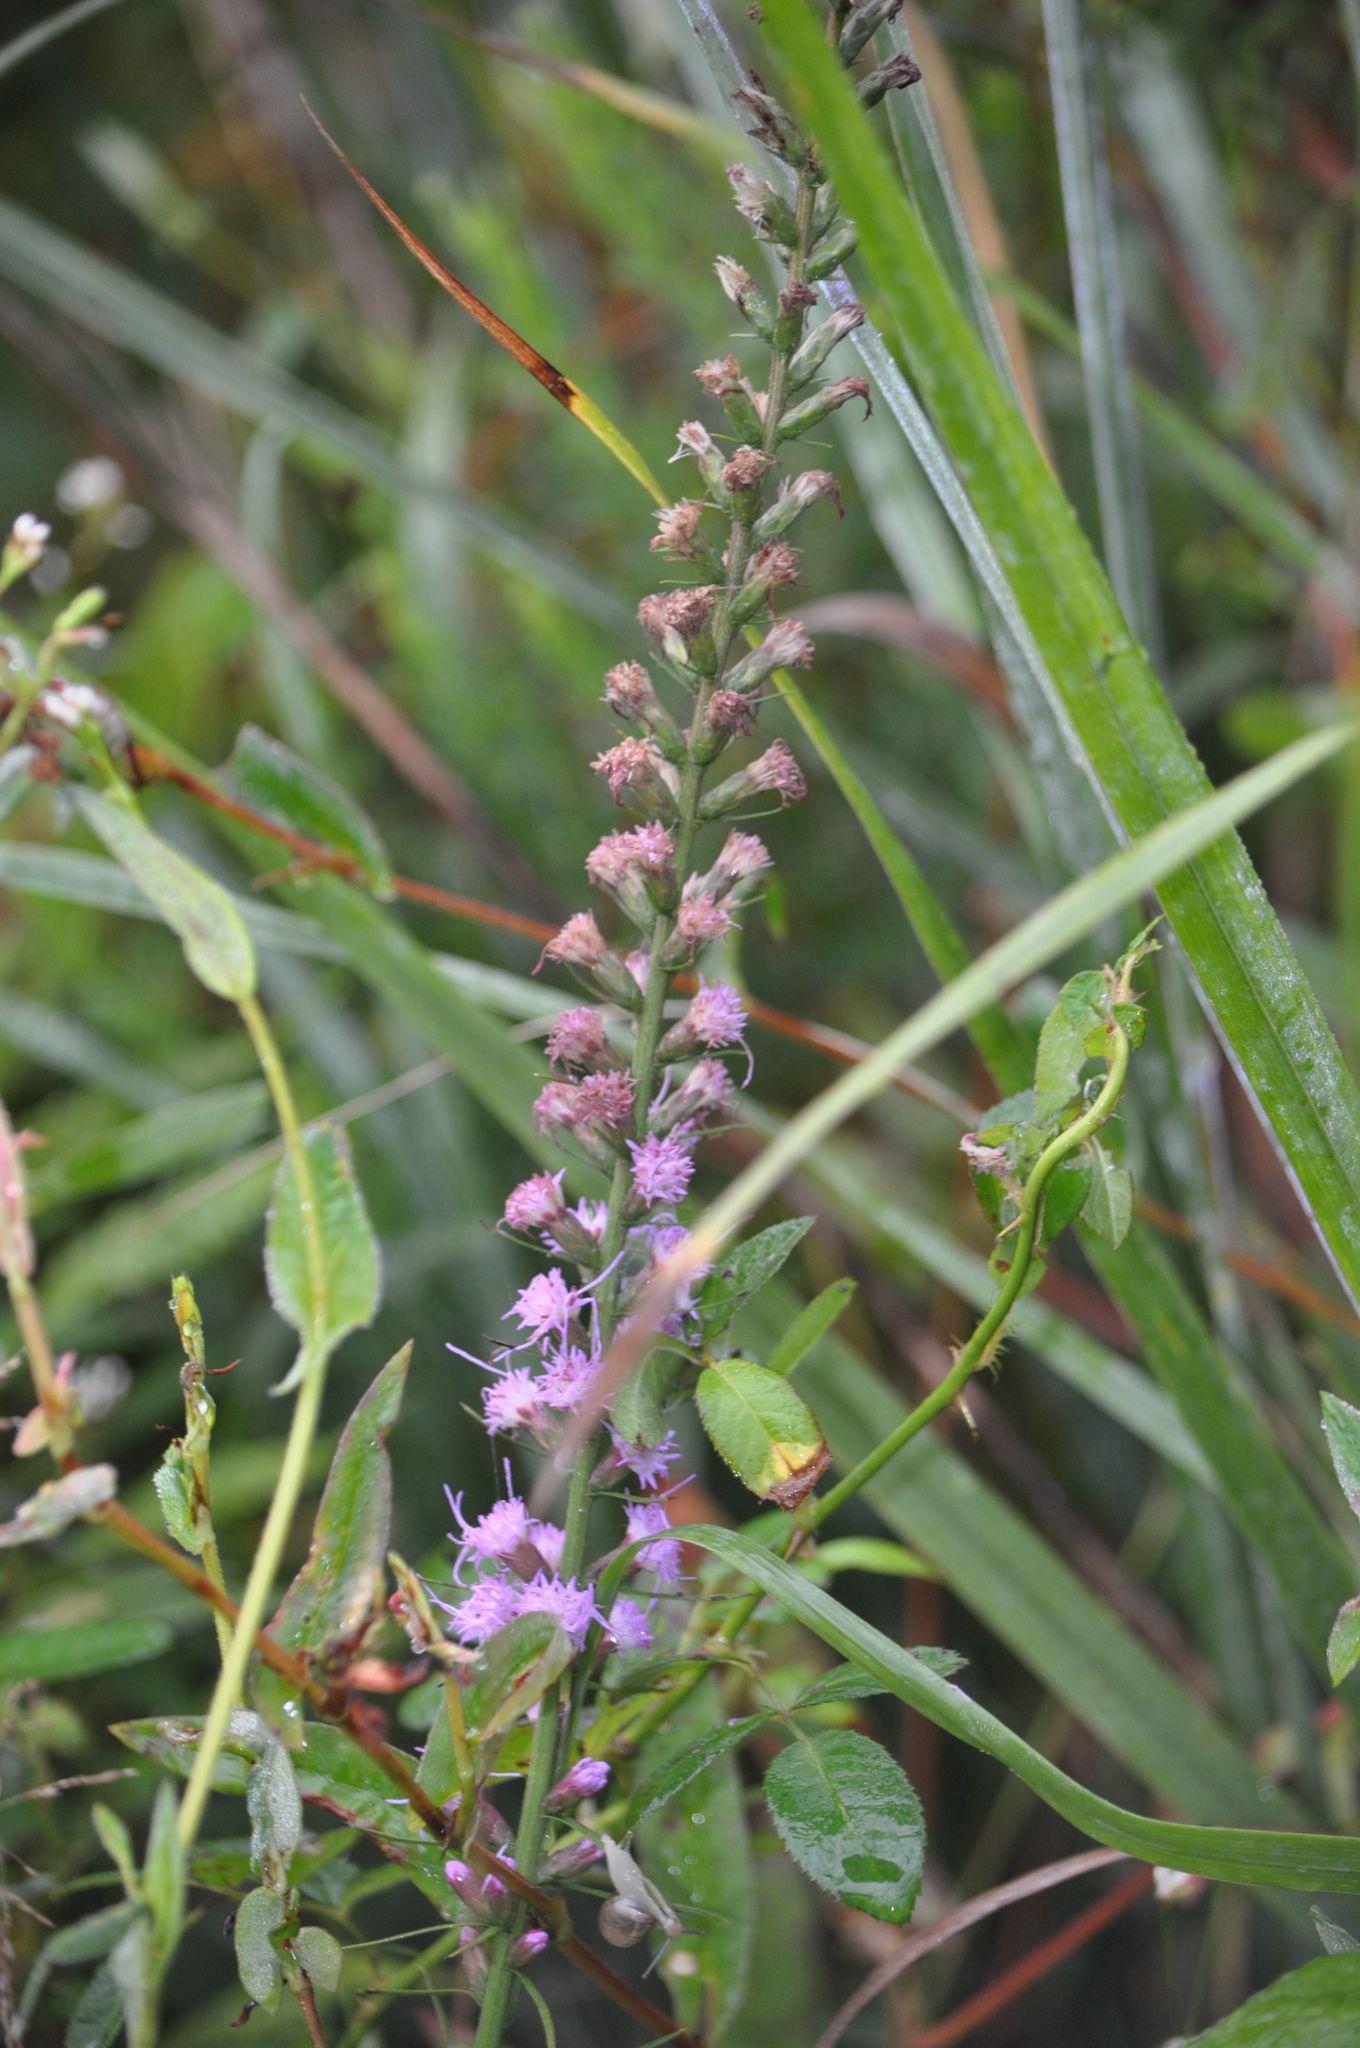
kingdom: Plantae
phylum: Tracheophyta
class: Magnoliopsida
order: Asterales
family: Asteraceae
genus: Liatris
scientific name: Liatris spicata
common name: Florist gayfeather
